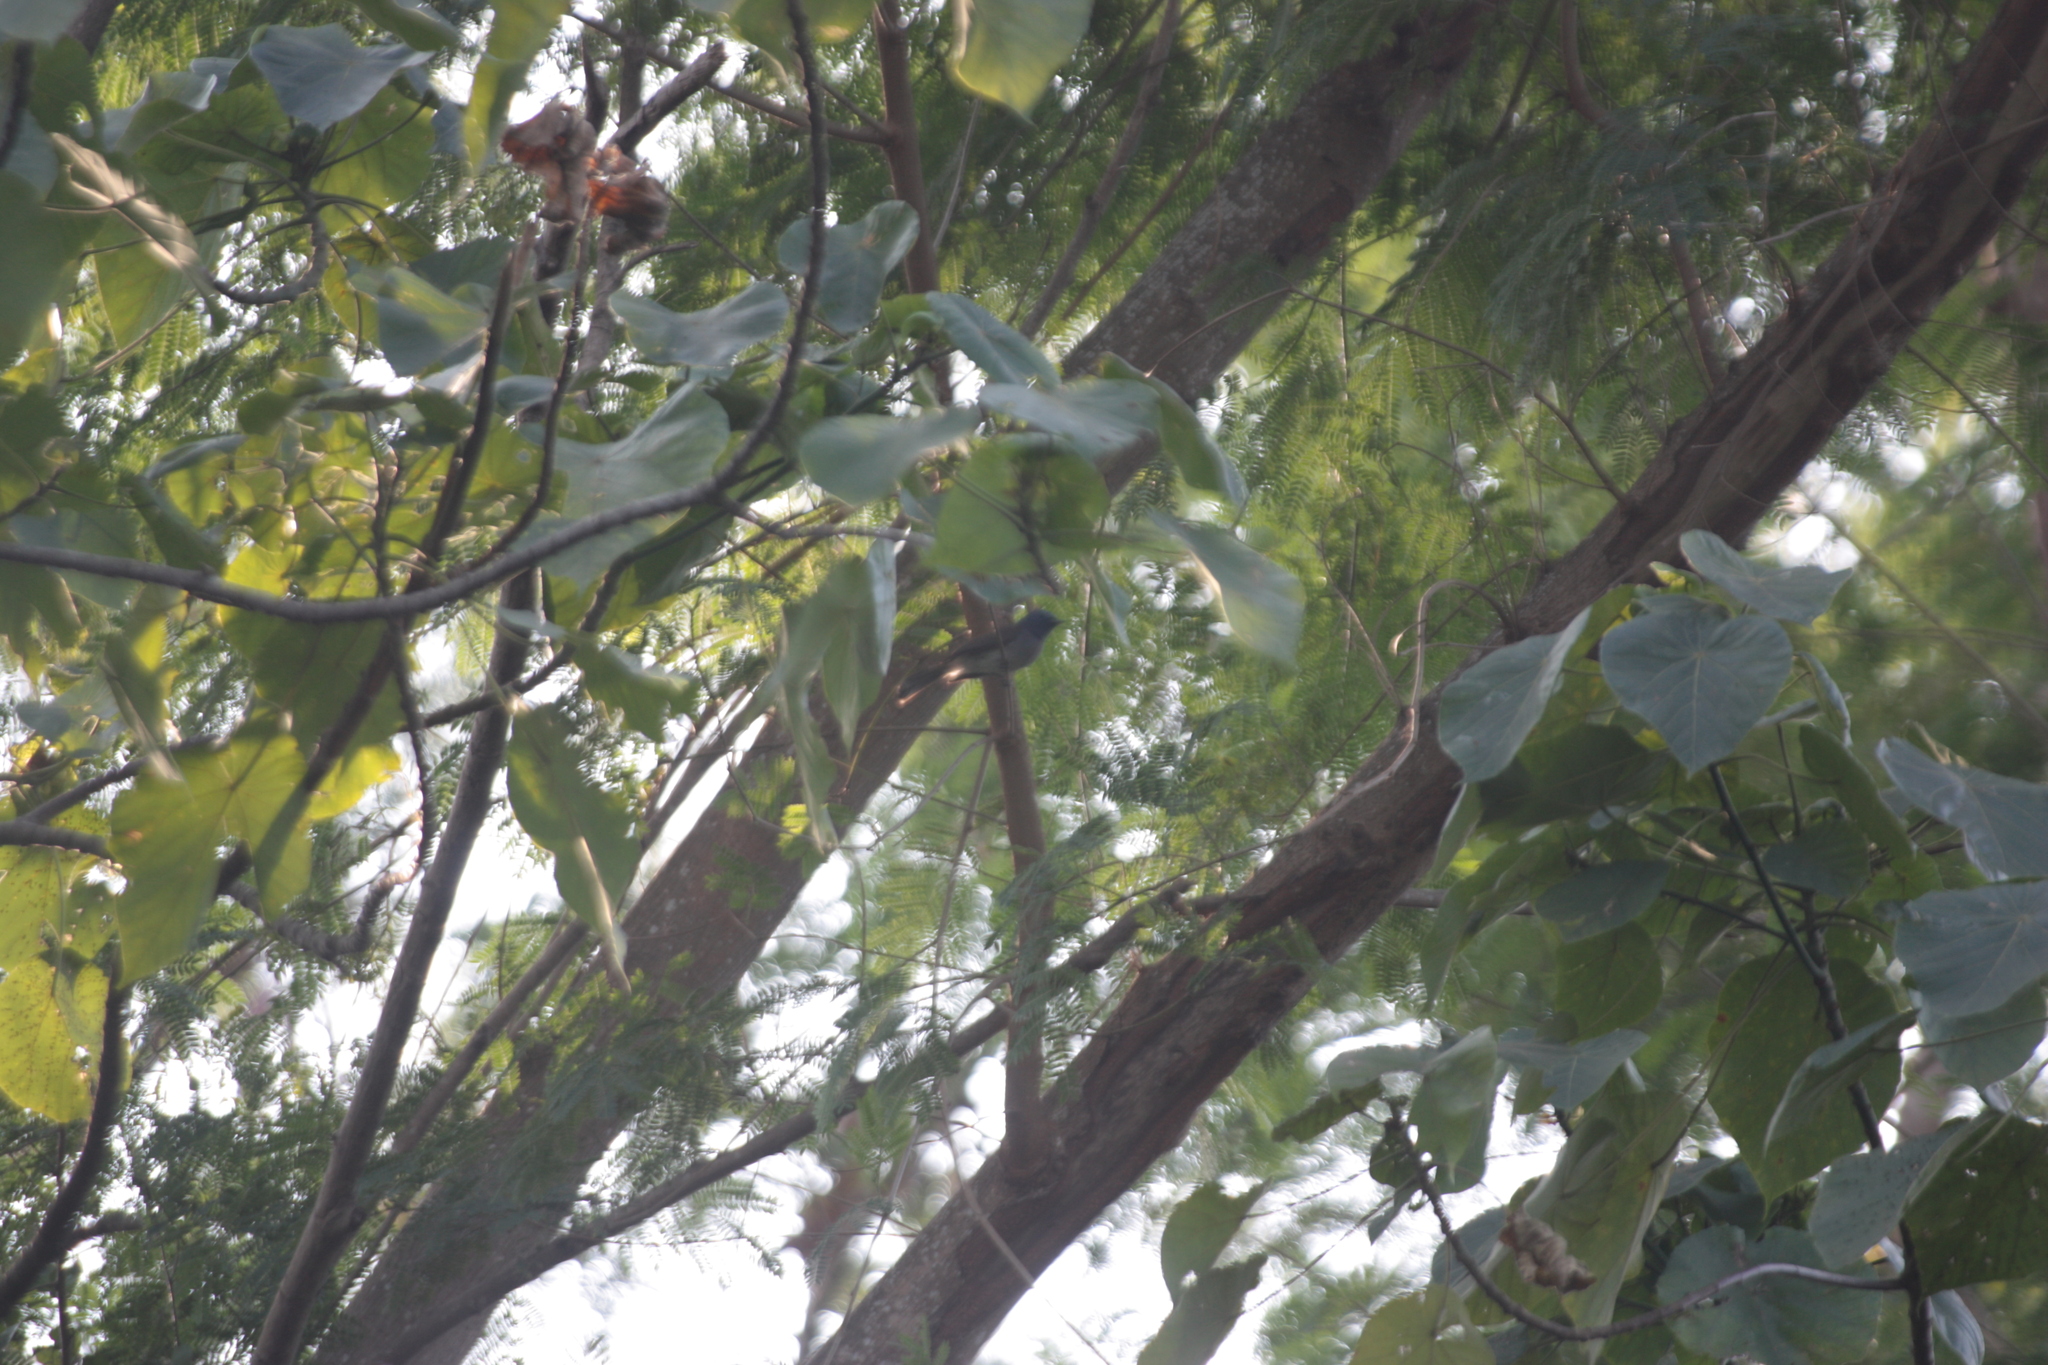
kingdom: Animalia
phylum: Chordata
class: Aves
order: Passeriformes
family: Monarchidae
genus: Hypothymis
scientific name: Hypothymis azurea
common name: Black-naped monarch
